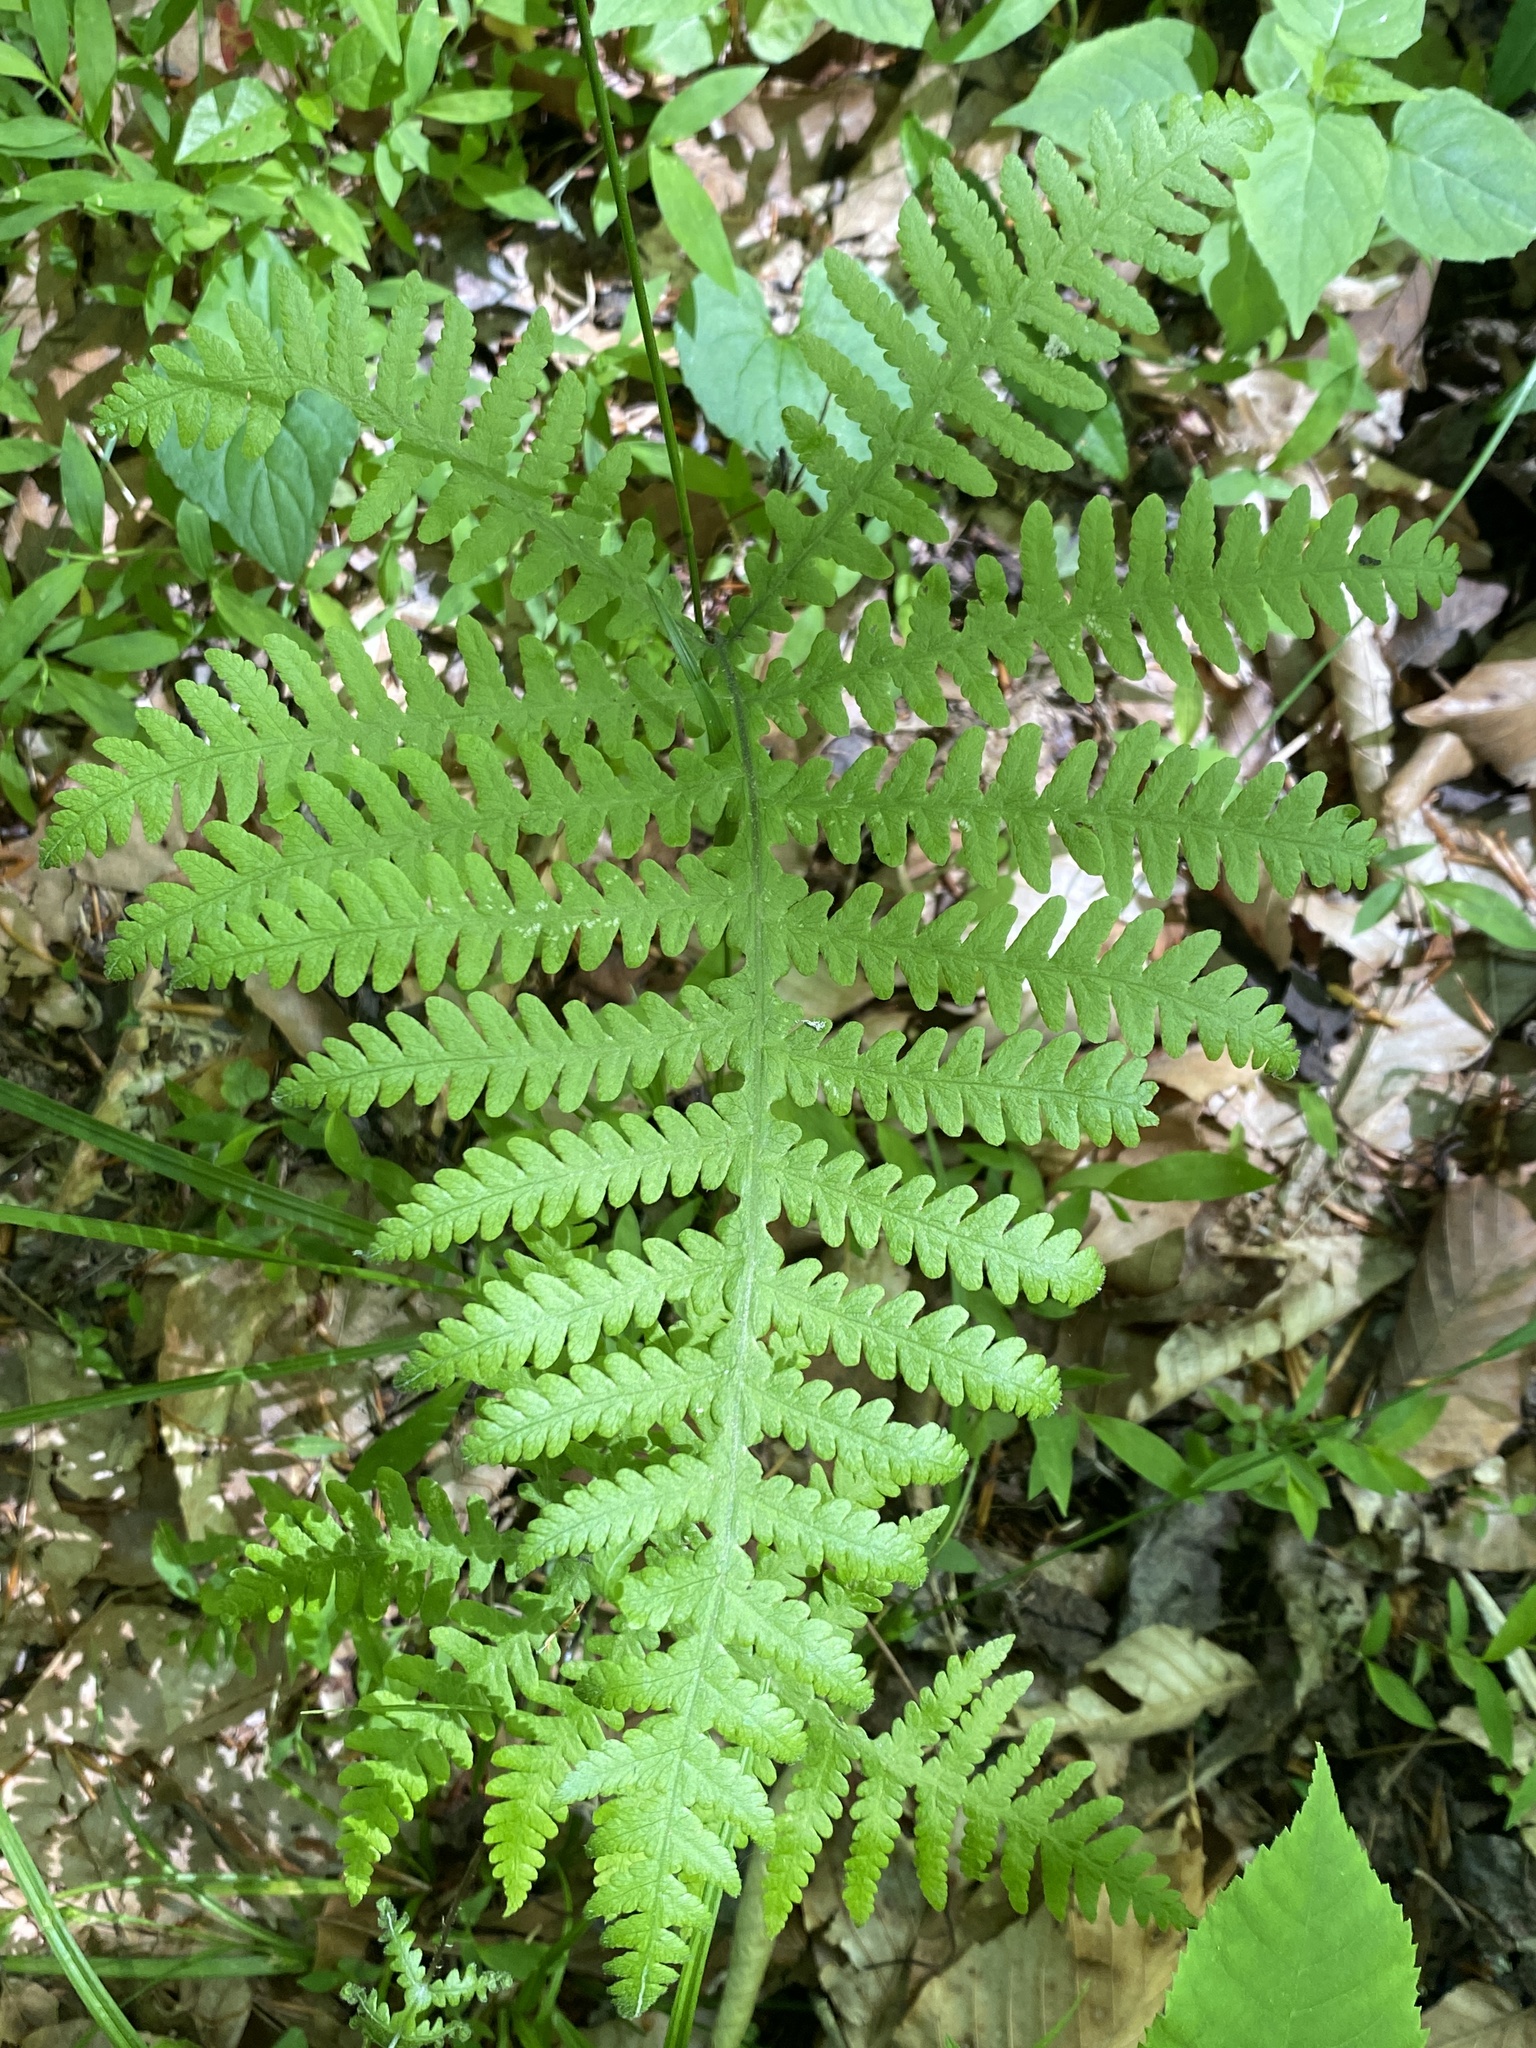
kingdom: Plantae
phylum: Tracheophyta
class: Polypodiopsida
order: Polypodiales
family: Thelypteridaceae
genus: Phegopteris
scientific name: Phegopteris hexagonoptera
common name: Broad beech fern
